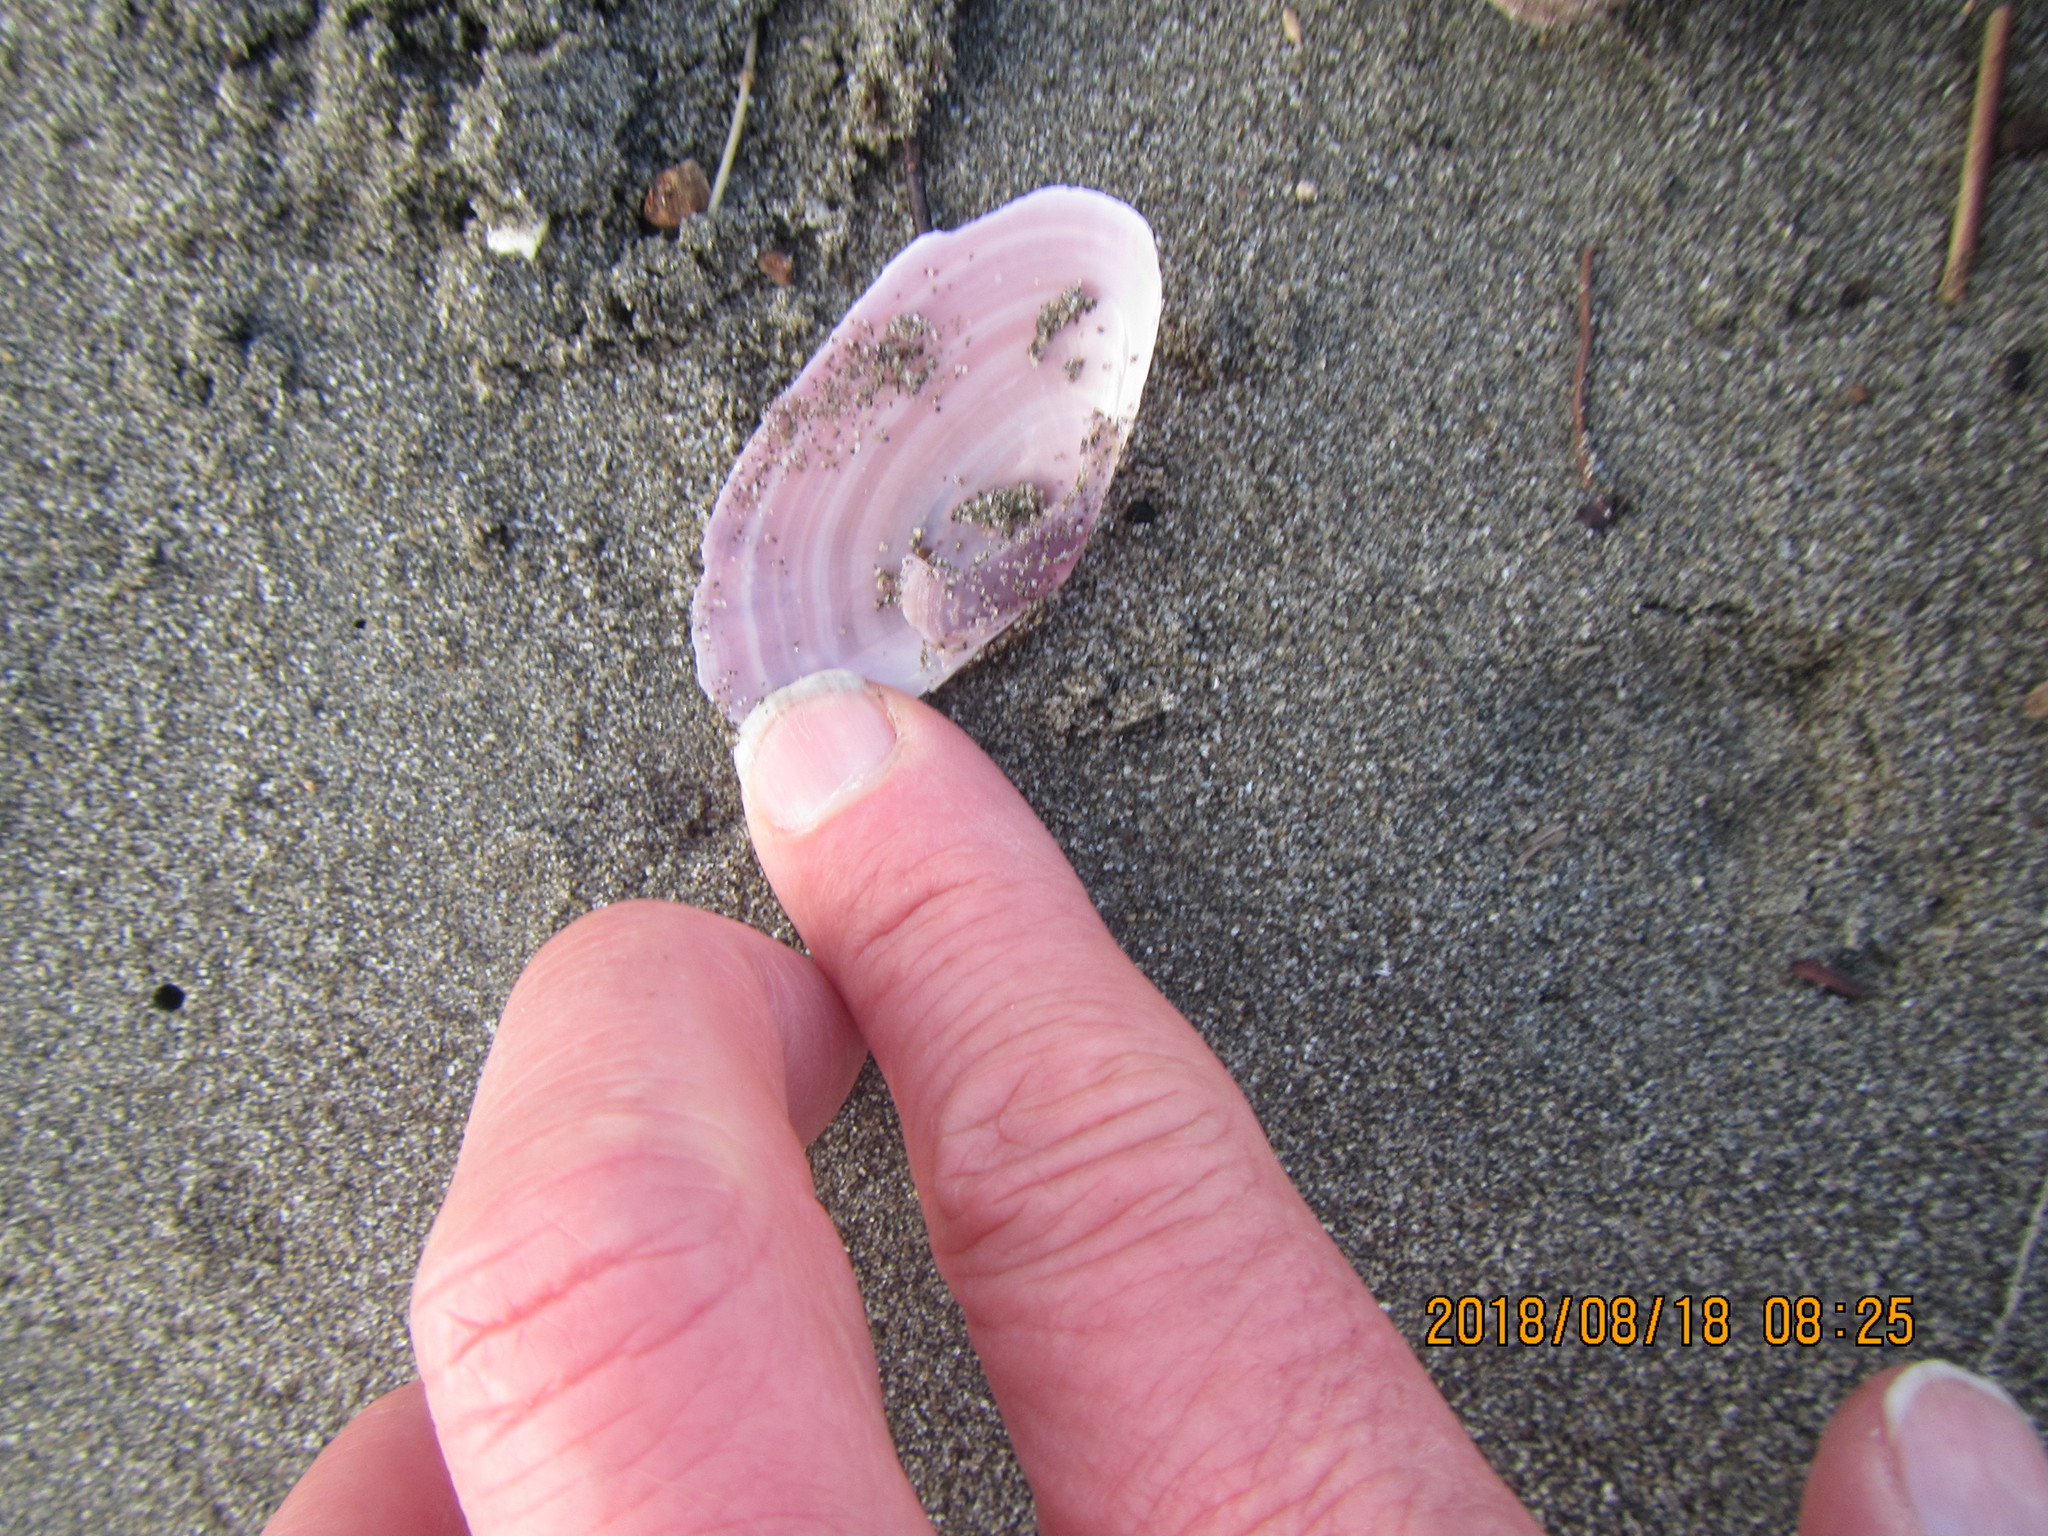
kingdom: Animalia
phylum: Mollusca
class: Bivalvia
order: Cardiida
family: Psammobiidae
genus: Gari
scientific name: Gari lineolata
